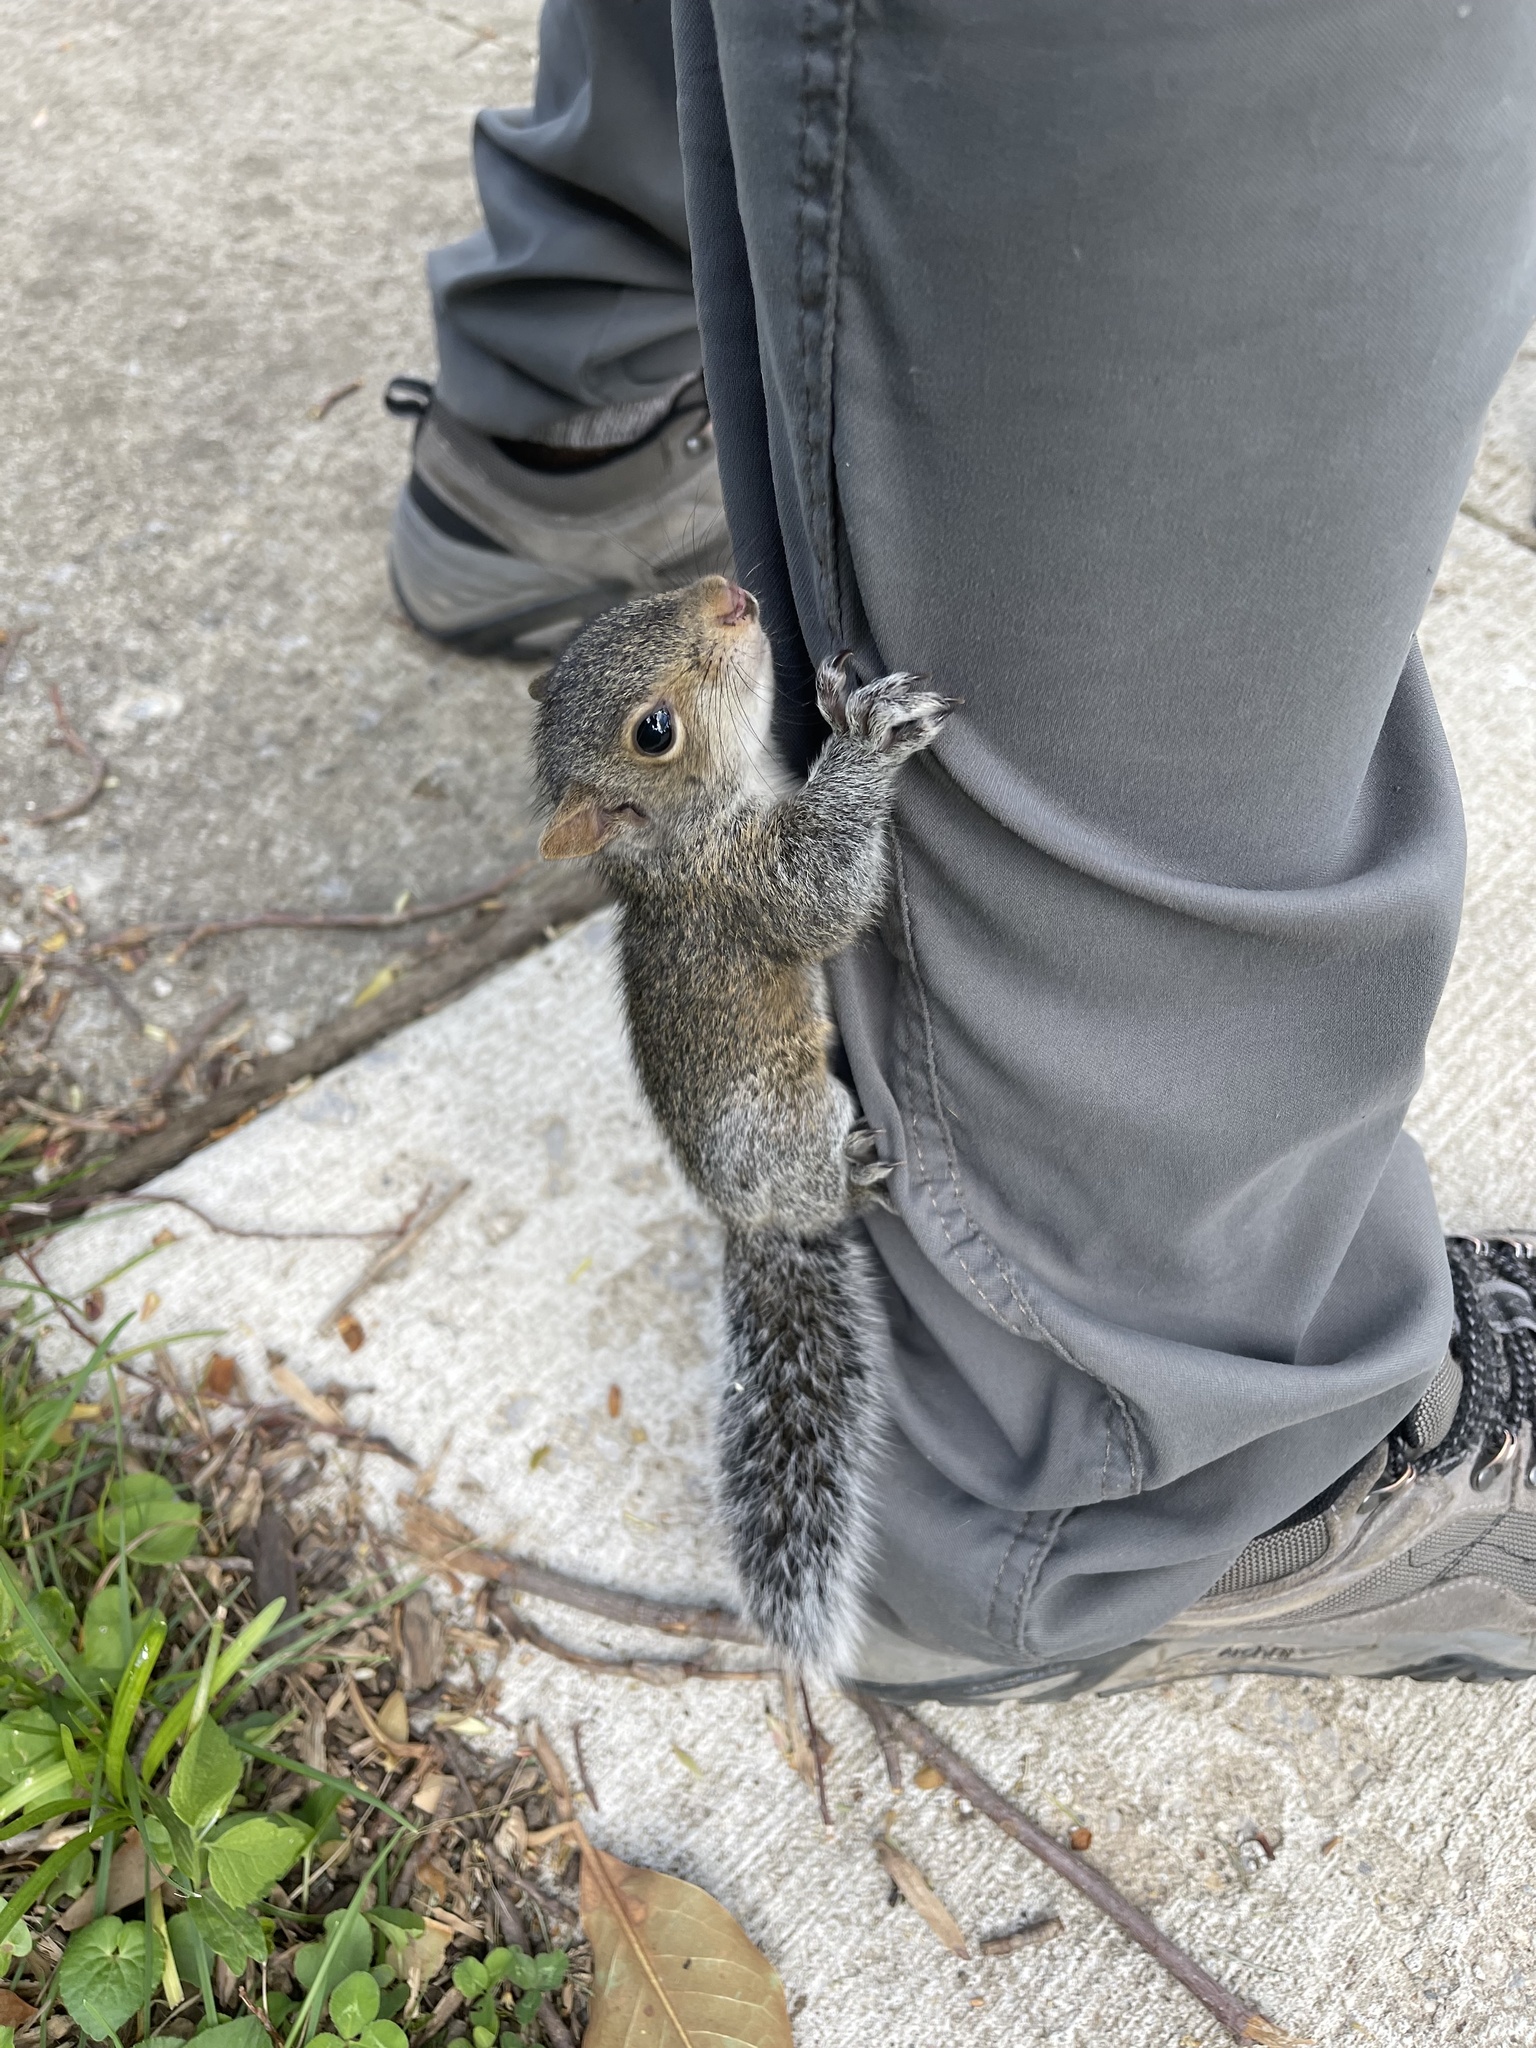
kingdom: Animalia
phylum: Chordata
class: Mammalia
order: Rodentia
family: Sciuridae
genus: Sciurus
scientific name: Sciurus carolinensis
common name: Eastern gray squirrel
